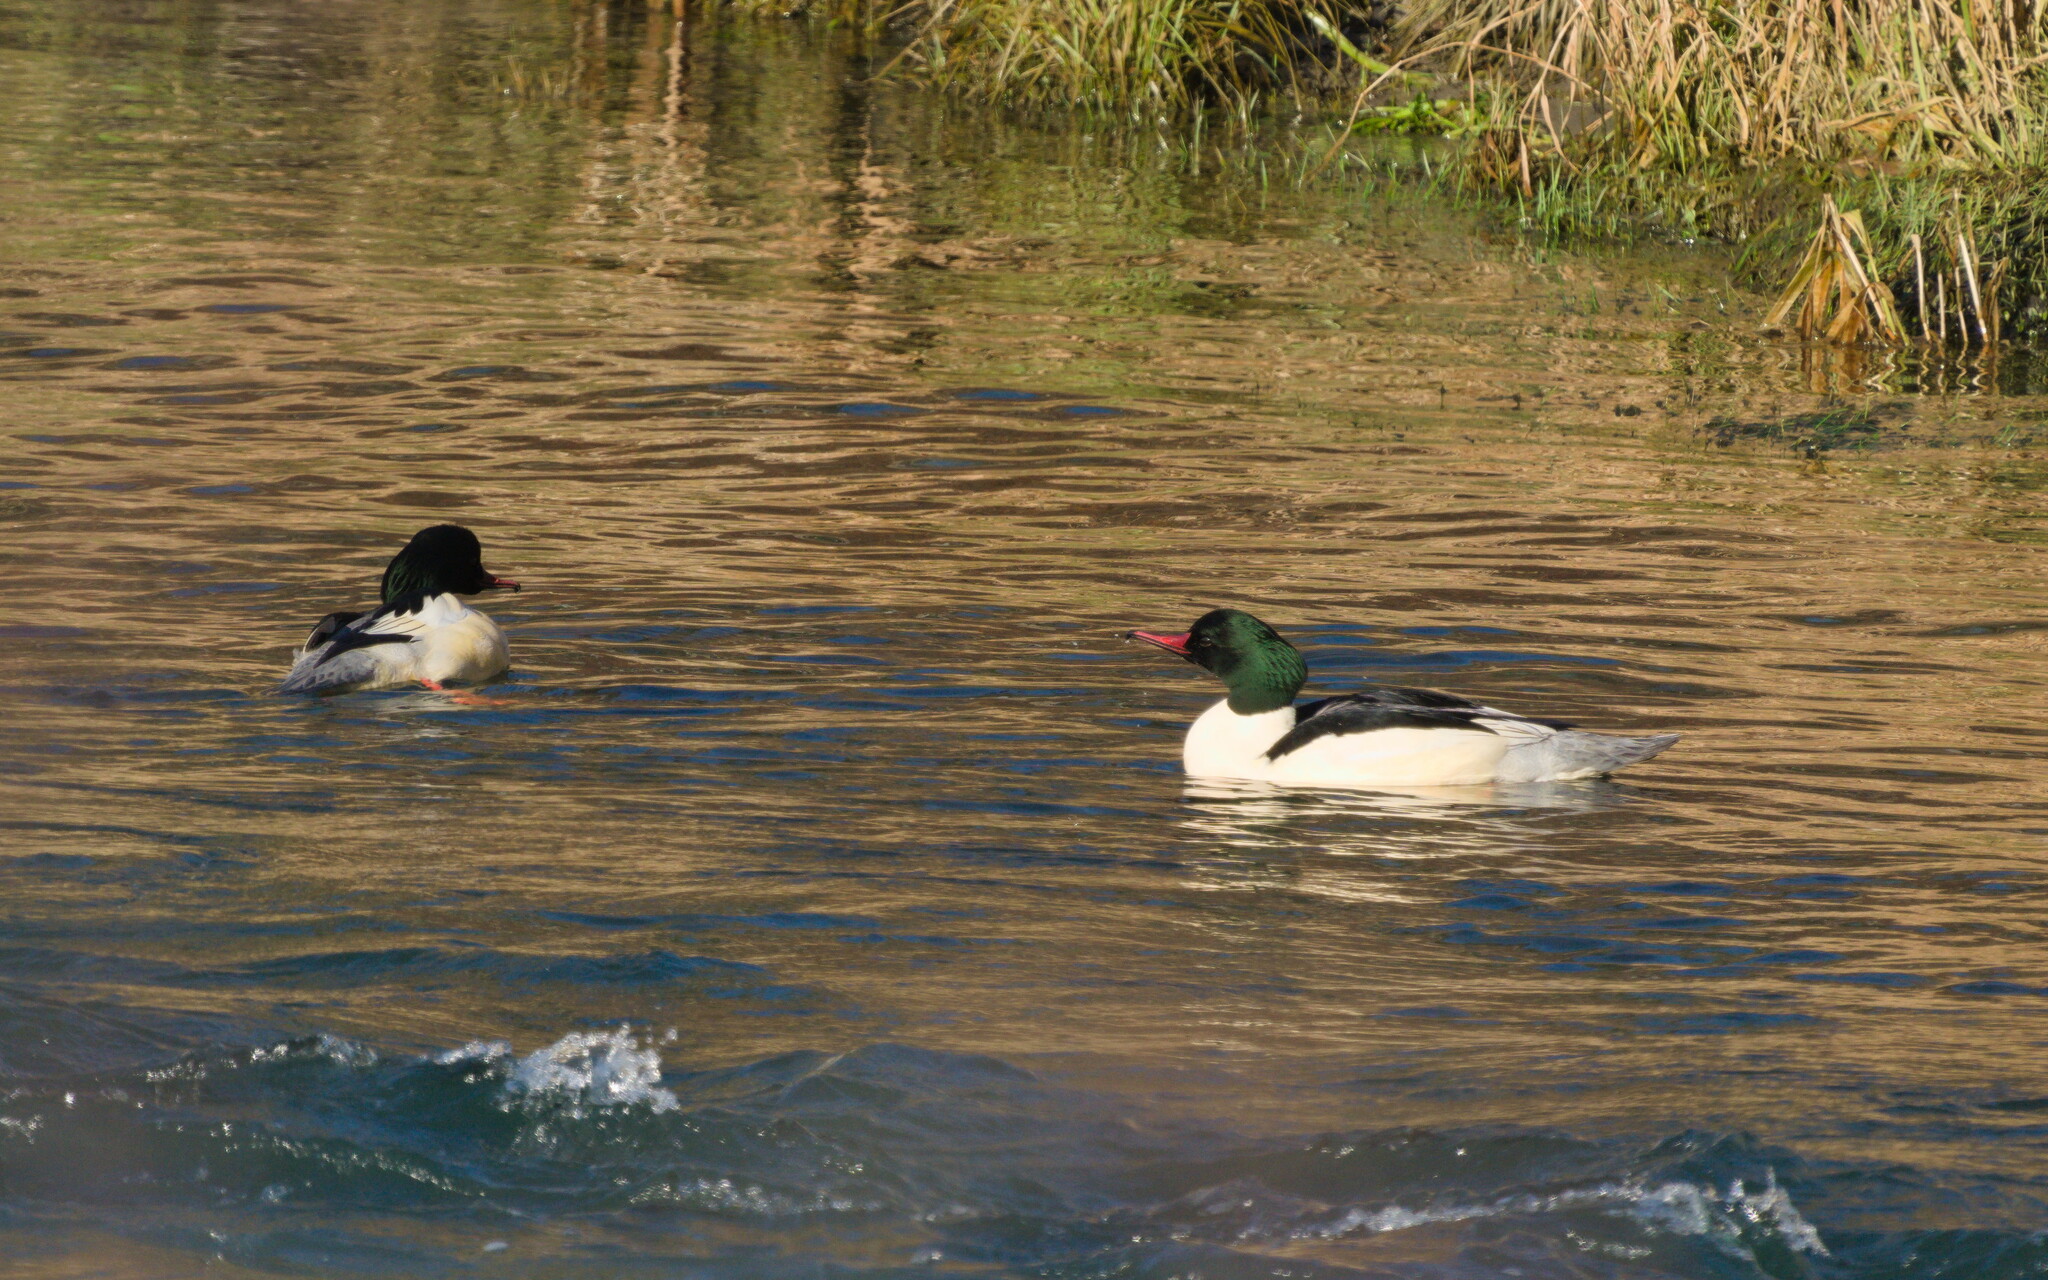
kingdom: Animalia
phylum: Chordata
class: Aves
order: Anseriformes
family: Anatidae
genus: Mergus
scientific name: Mergus merganser
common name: Common merganser
